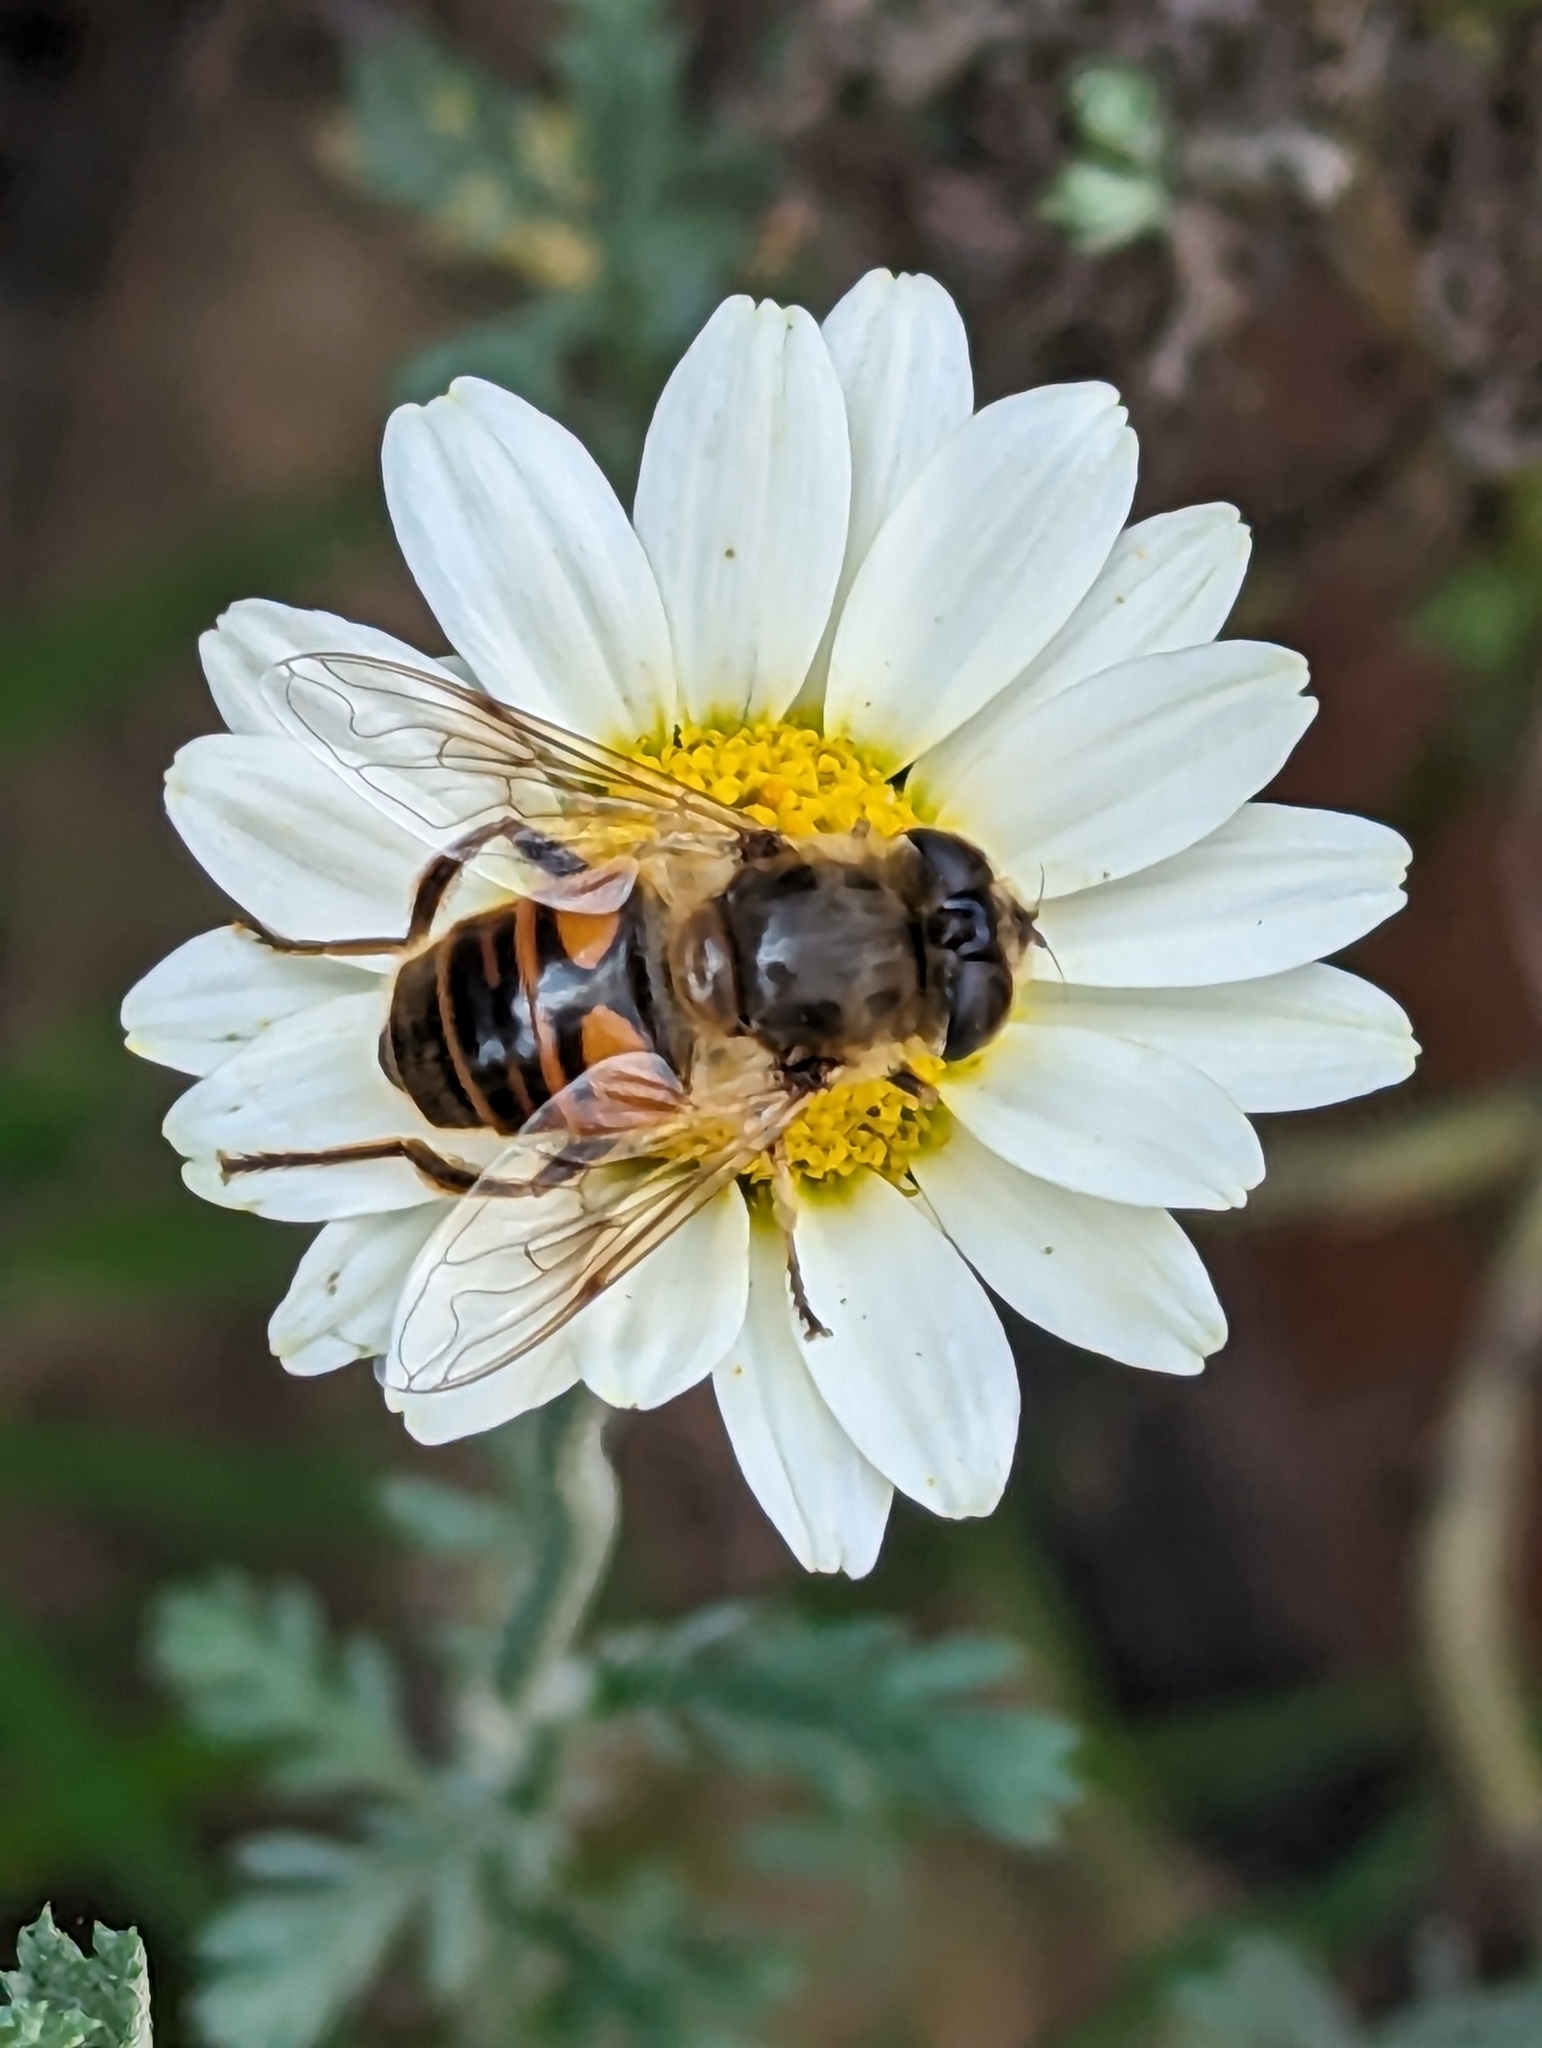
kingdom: Animalia
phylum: Arthropoda
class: Insecta
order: Diptera
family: Syrphidae
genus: Eristalis
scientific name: Eristalis tenax
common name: Drone fly
